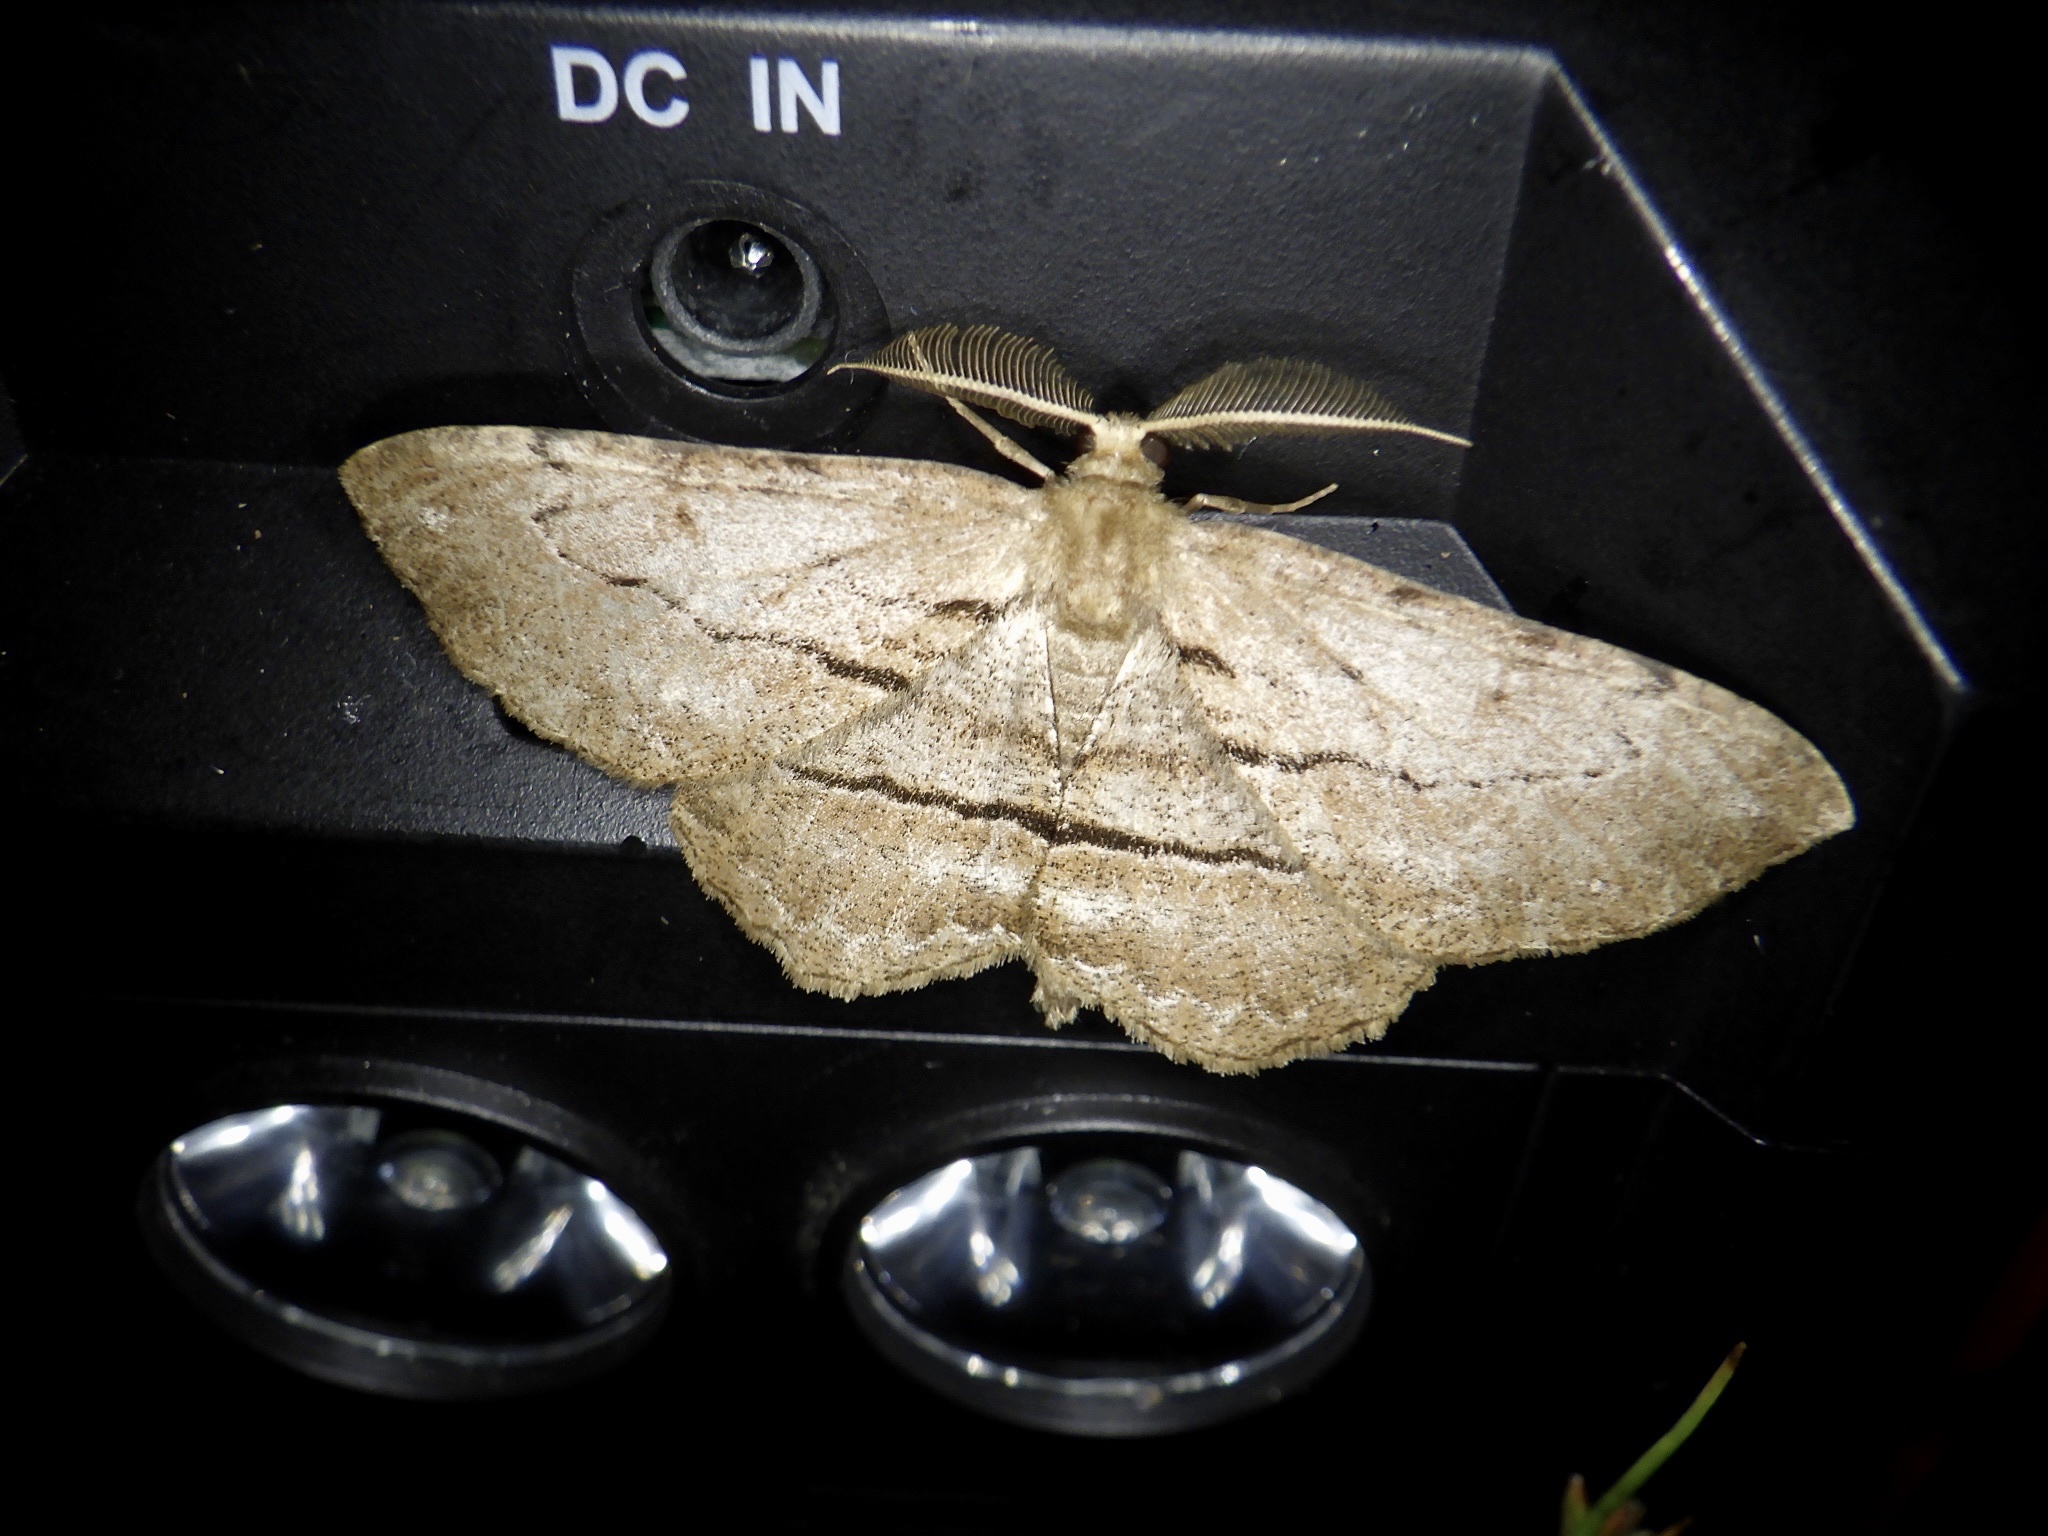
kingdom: Animalia
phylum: Arthropoda
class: Insecta
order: Lepidoptera
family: Geometridae
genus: Apocleora
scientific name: Apocleora rimosa
